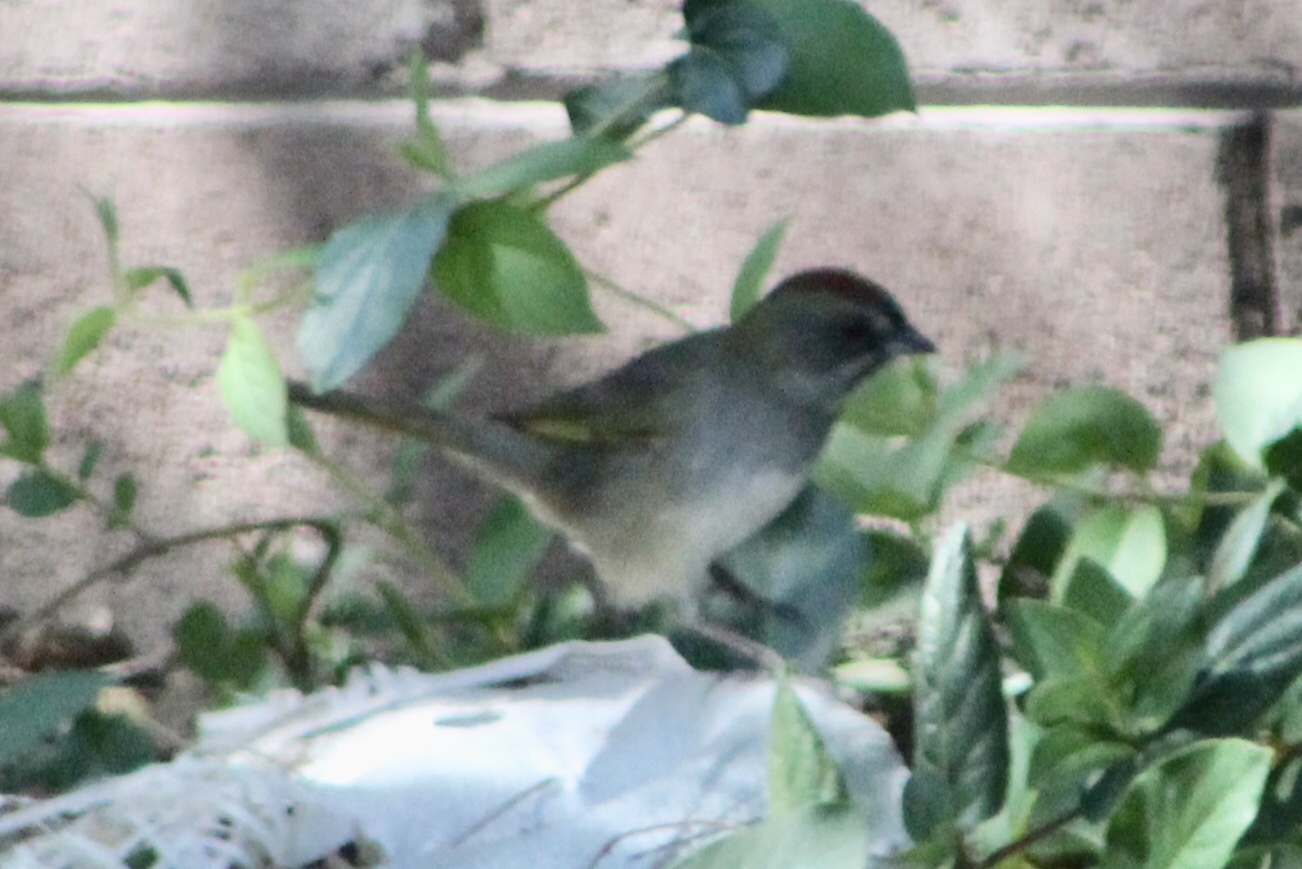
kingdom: Animalia
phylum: Chordata
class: Aves
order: Passeriformes
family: Passerellidae
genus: Pipilo
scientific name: Pipilo chlorurus
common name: Green-tailed towhee
